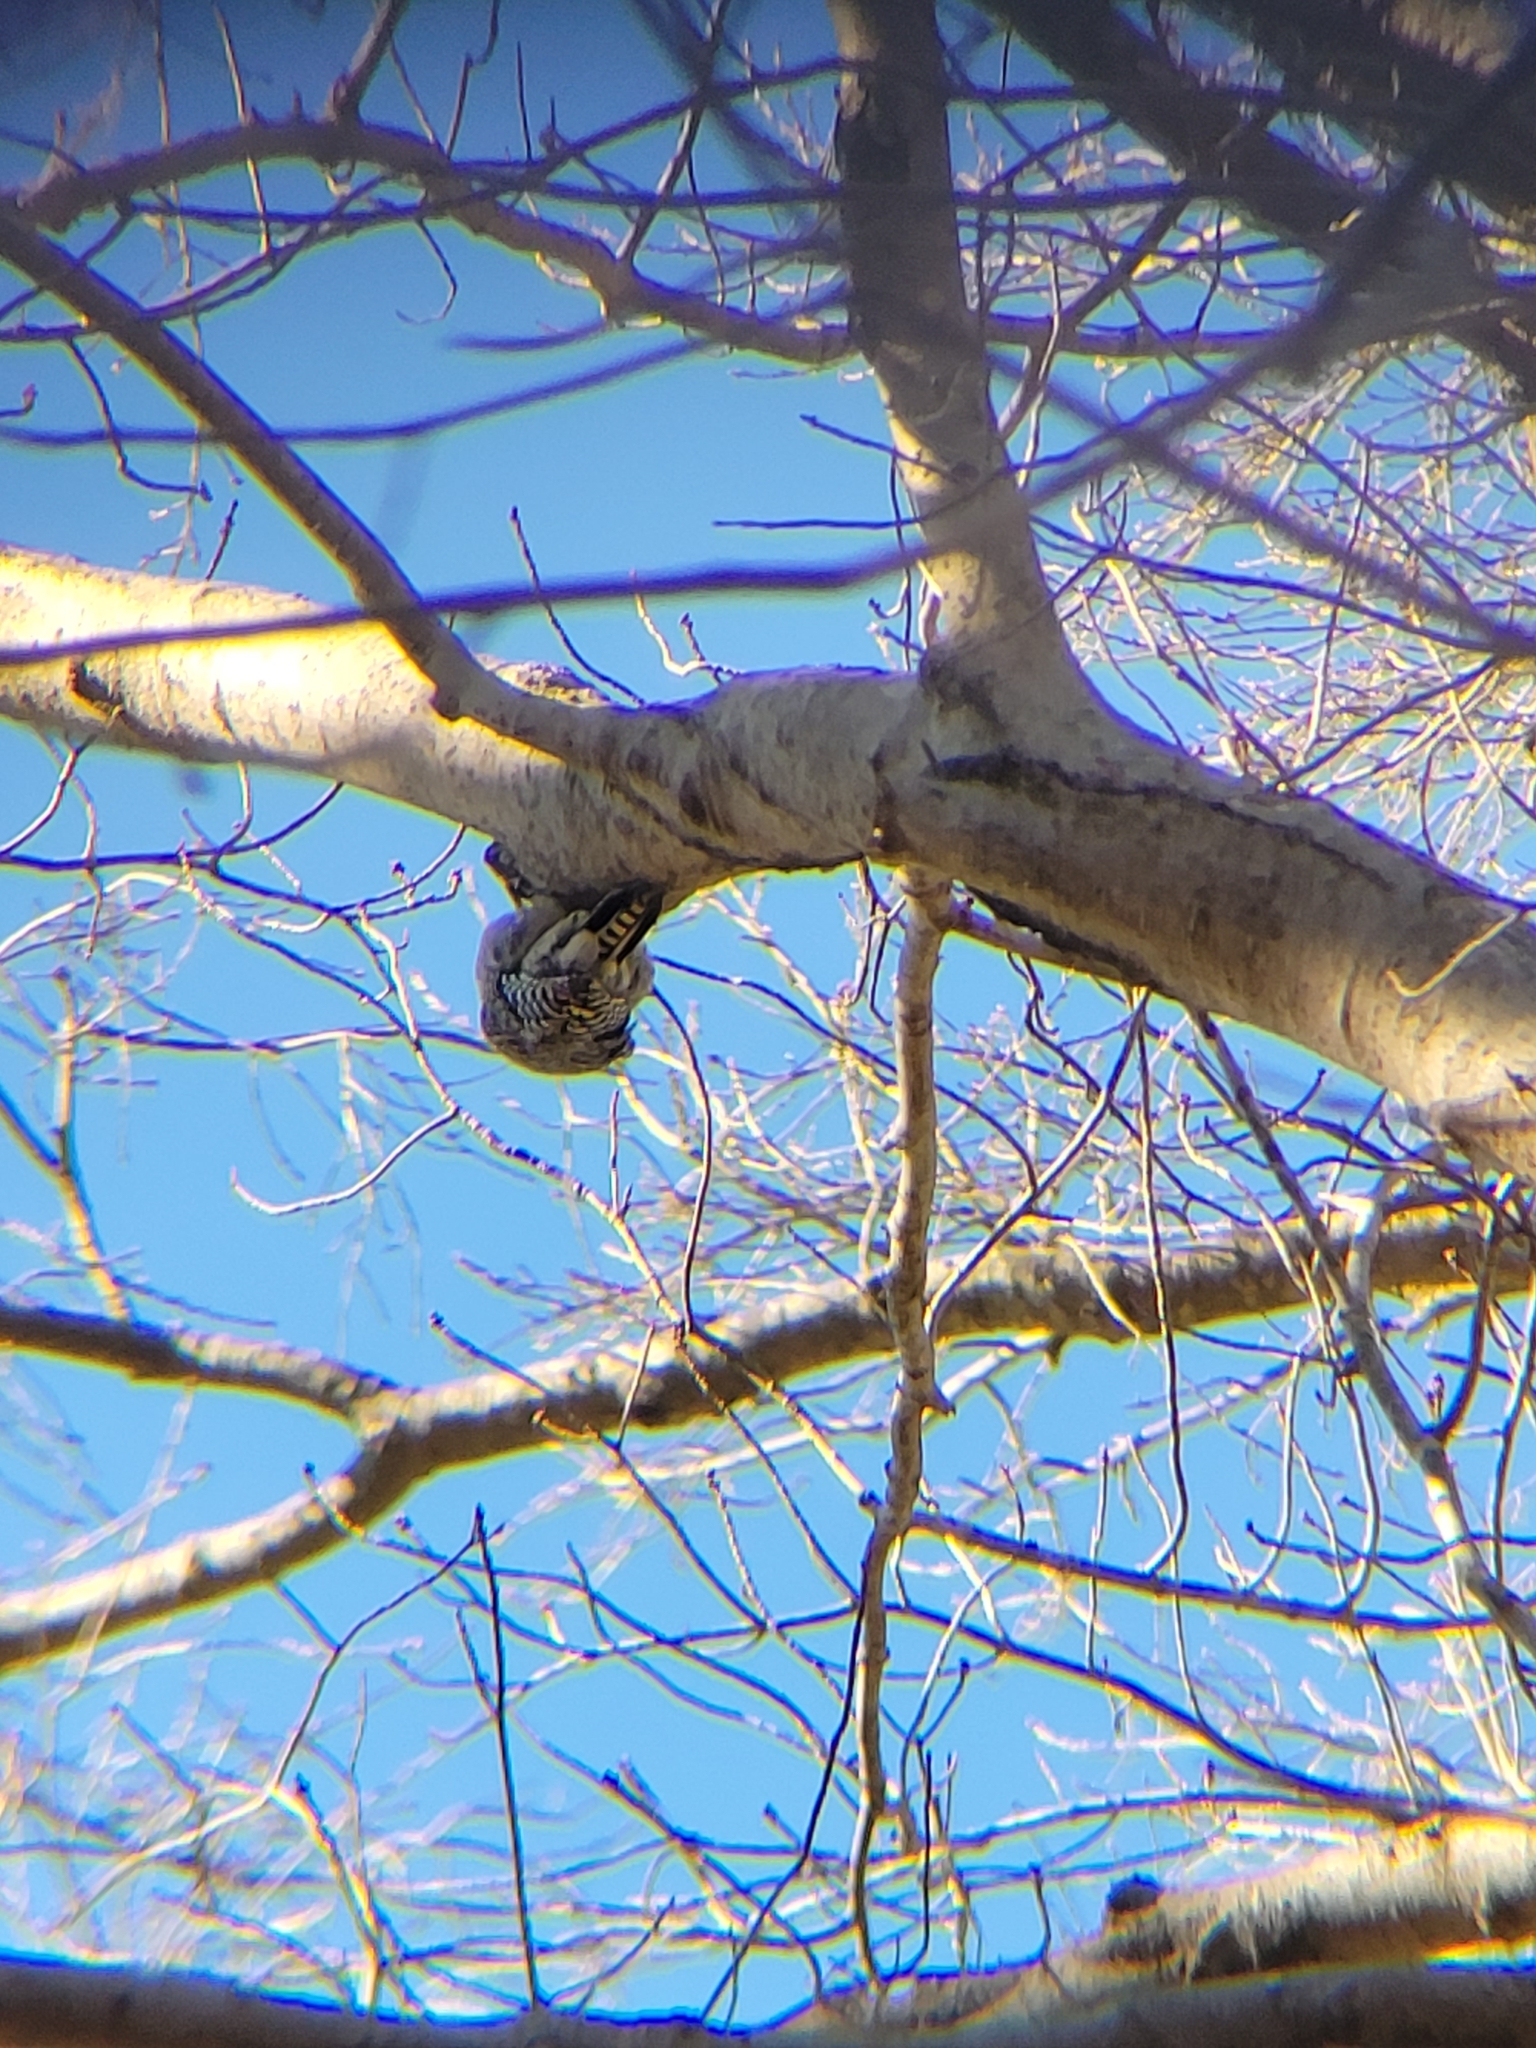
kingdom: Animalia
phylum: Chordata
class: Aves
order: Piciformes
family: Picidae
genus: Melanerpes
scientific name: Melanerpes carolinus
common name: Red-bellied woodpecker
